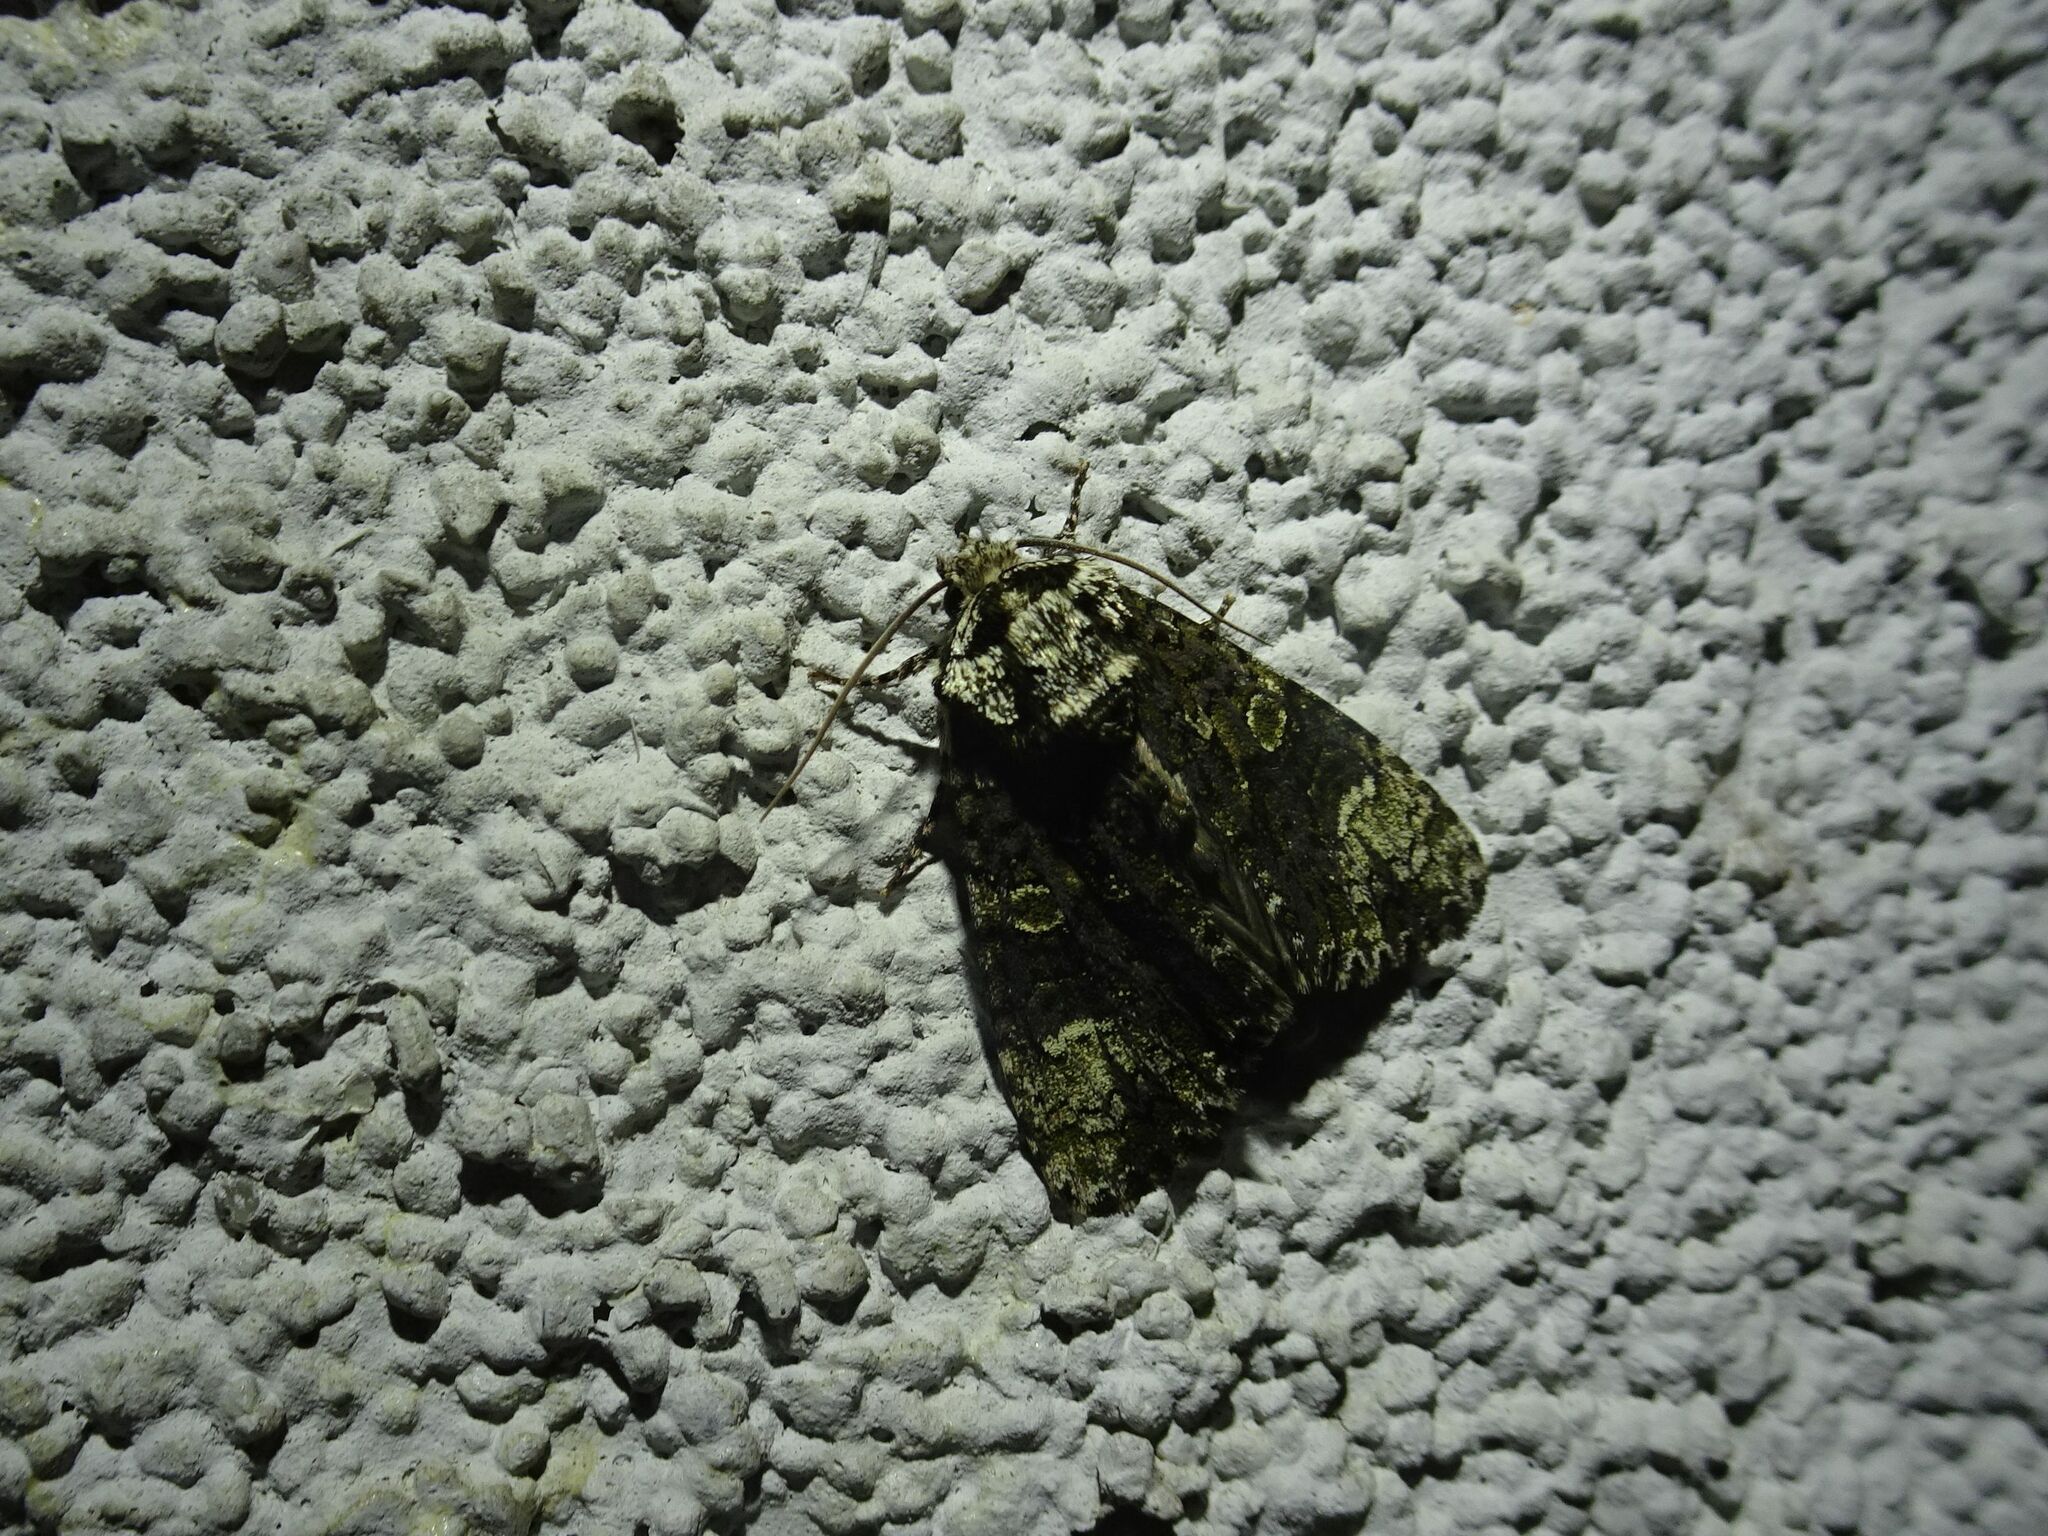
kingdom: Animalia
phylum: Arthropoda
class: Insecta
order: Lepidoptera
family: Noctuidae
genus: Craniophora
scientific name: Craniophora ligustri
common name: Coronet
